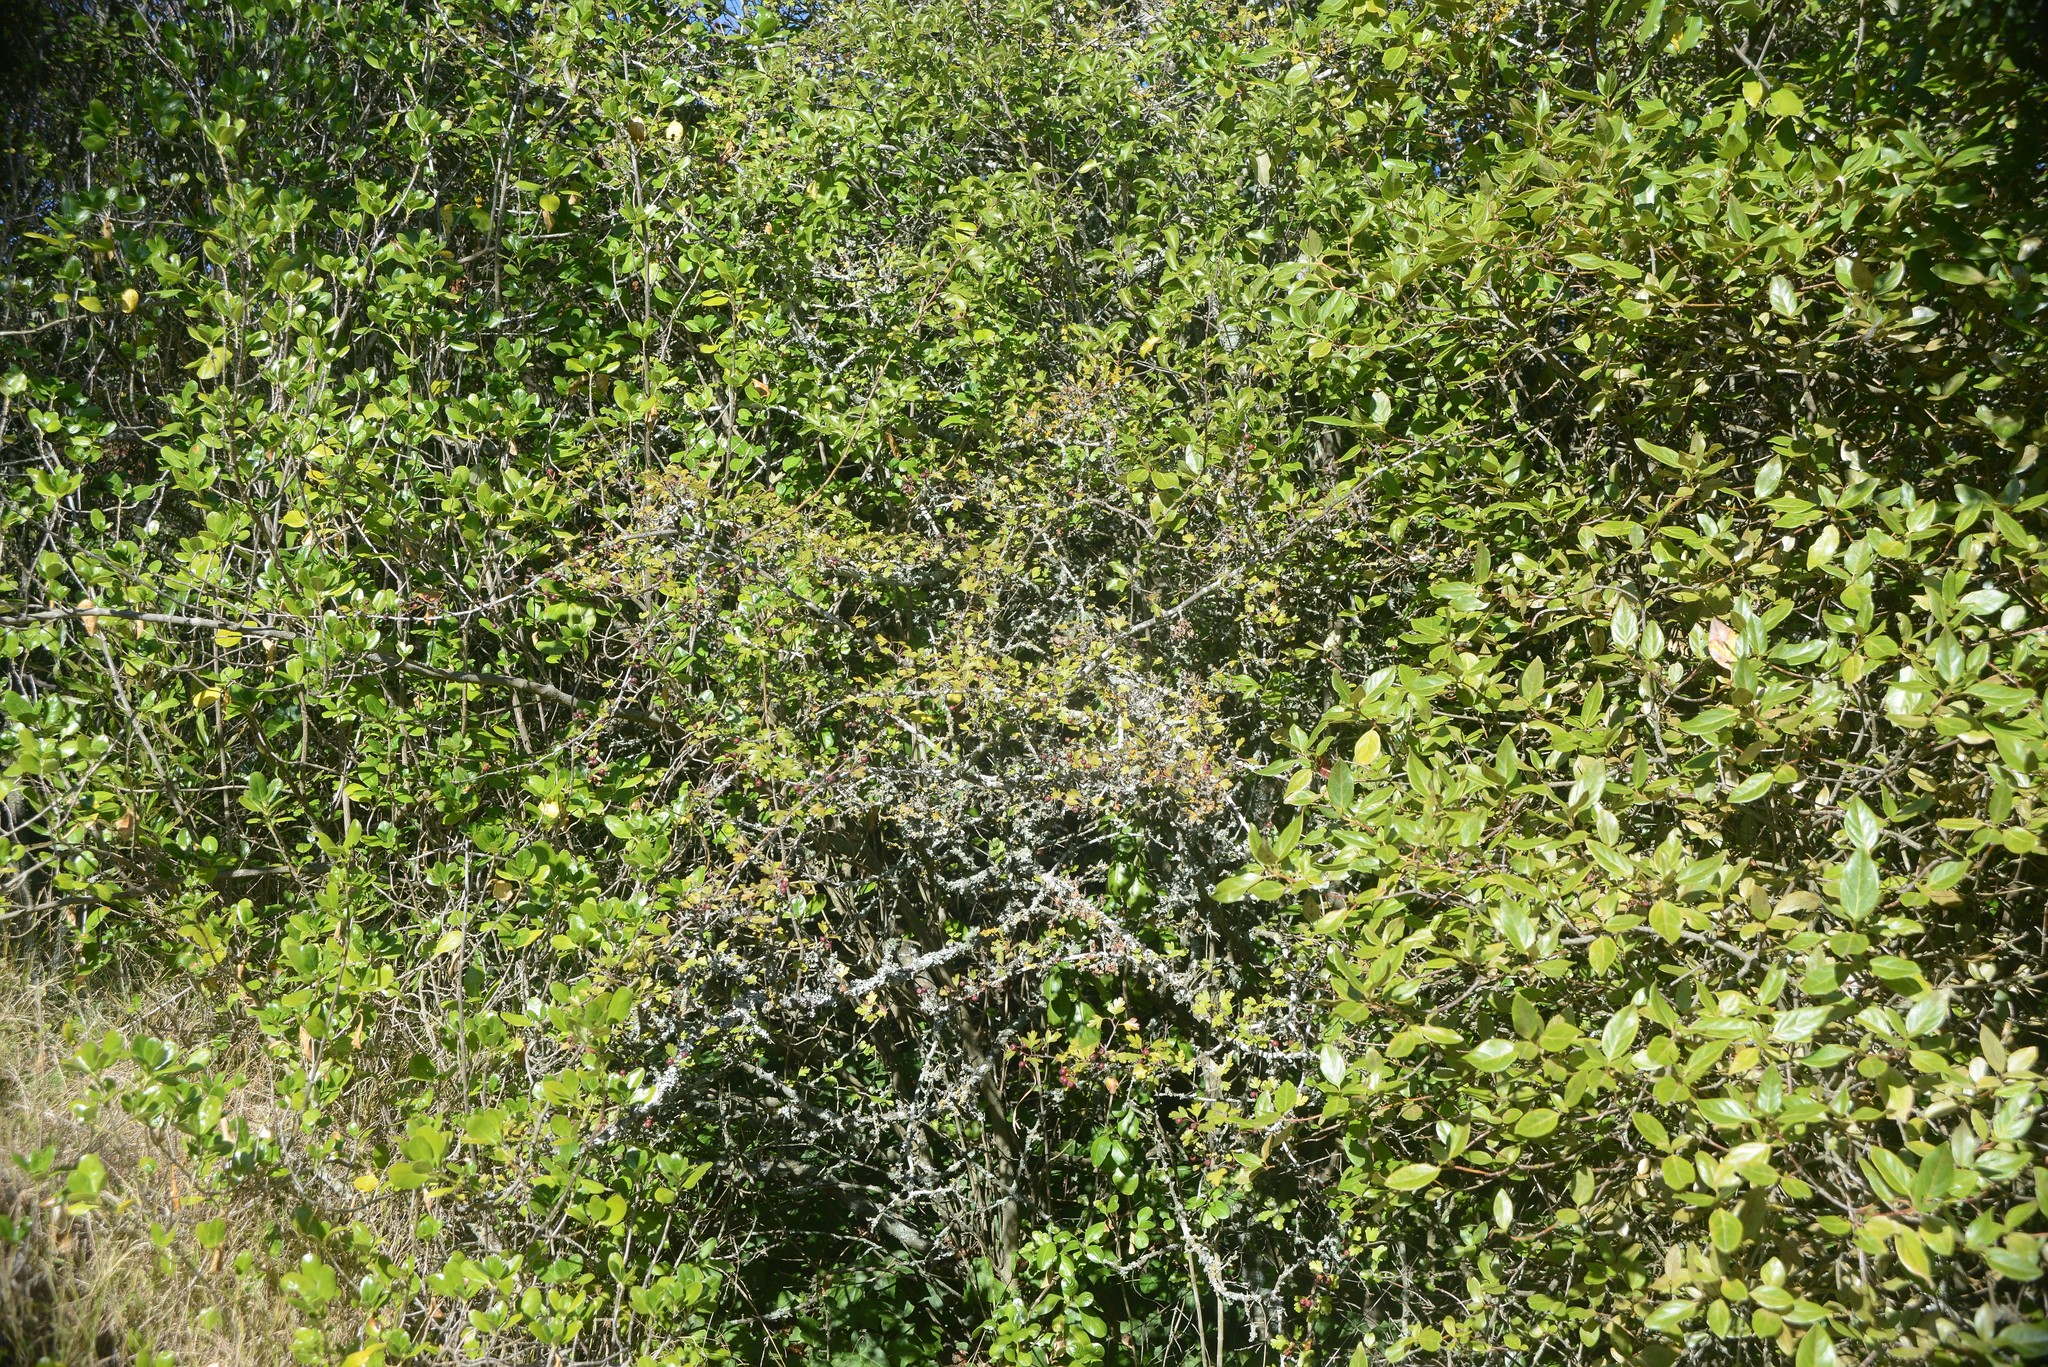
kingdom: Plantae
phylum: Tracheophyta
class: Magnoliopsida
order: Rosales
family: Rosaceae
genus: Crataegus
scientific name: Crataegus monogyna
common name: Hawthorn
